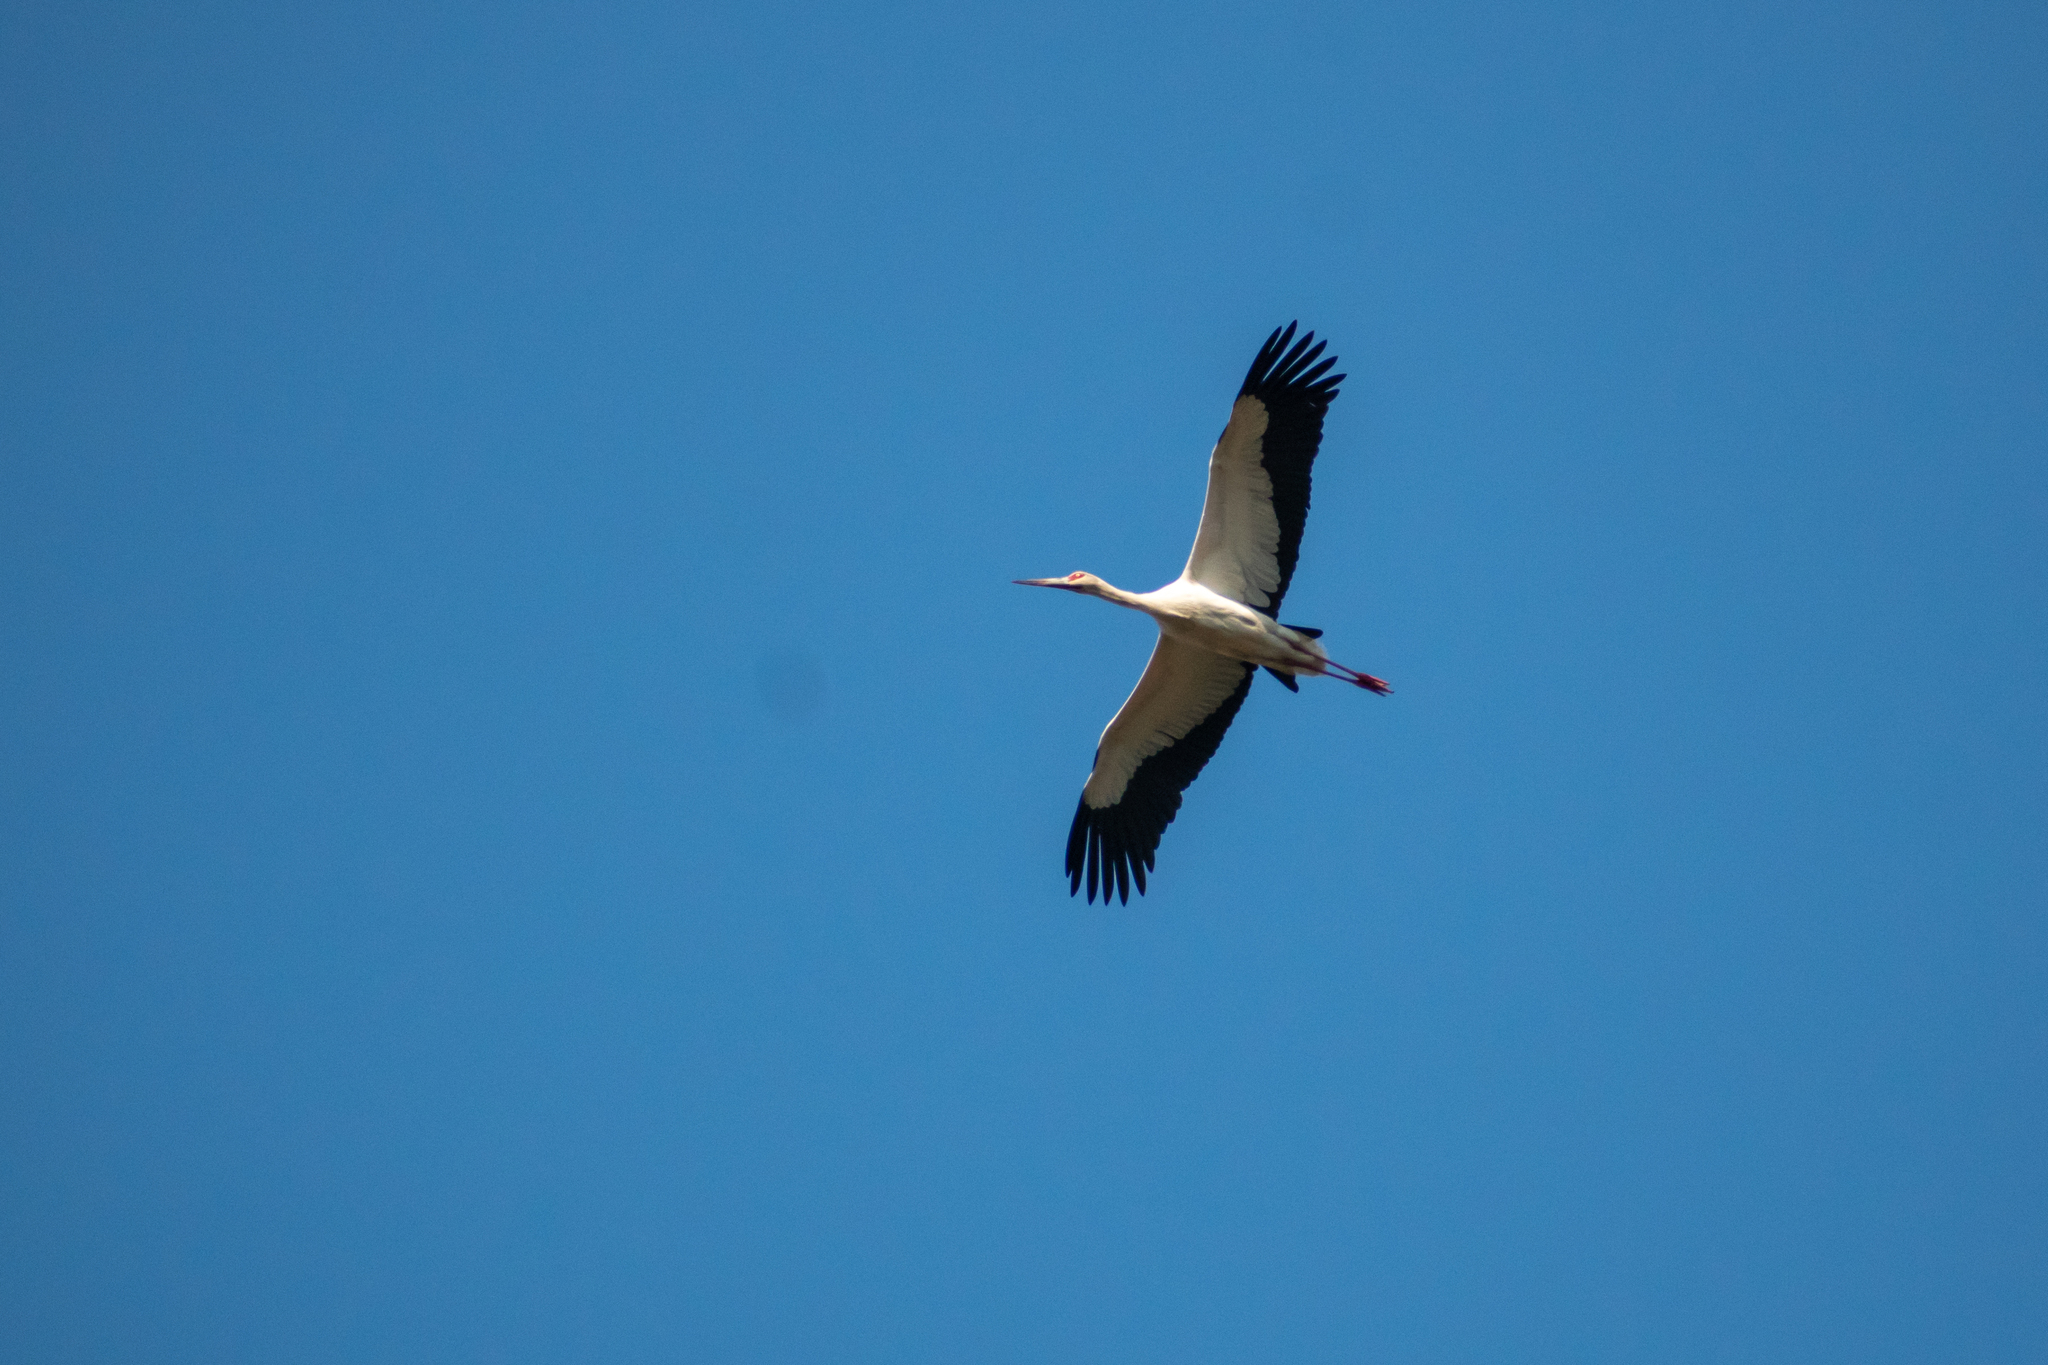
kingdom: Animalia
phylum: Chordata
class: Aves
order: Ciconiiformes
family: Ciconiidae
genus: Ciconia
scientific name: Ciconia maguari
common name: Maguari stork
